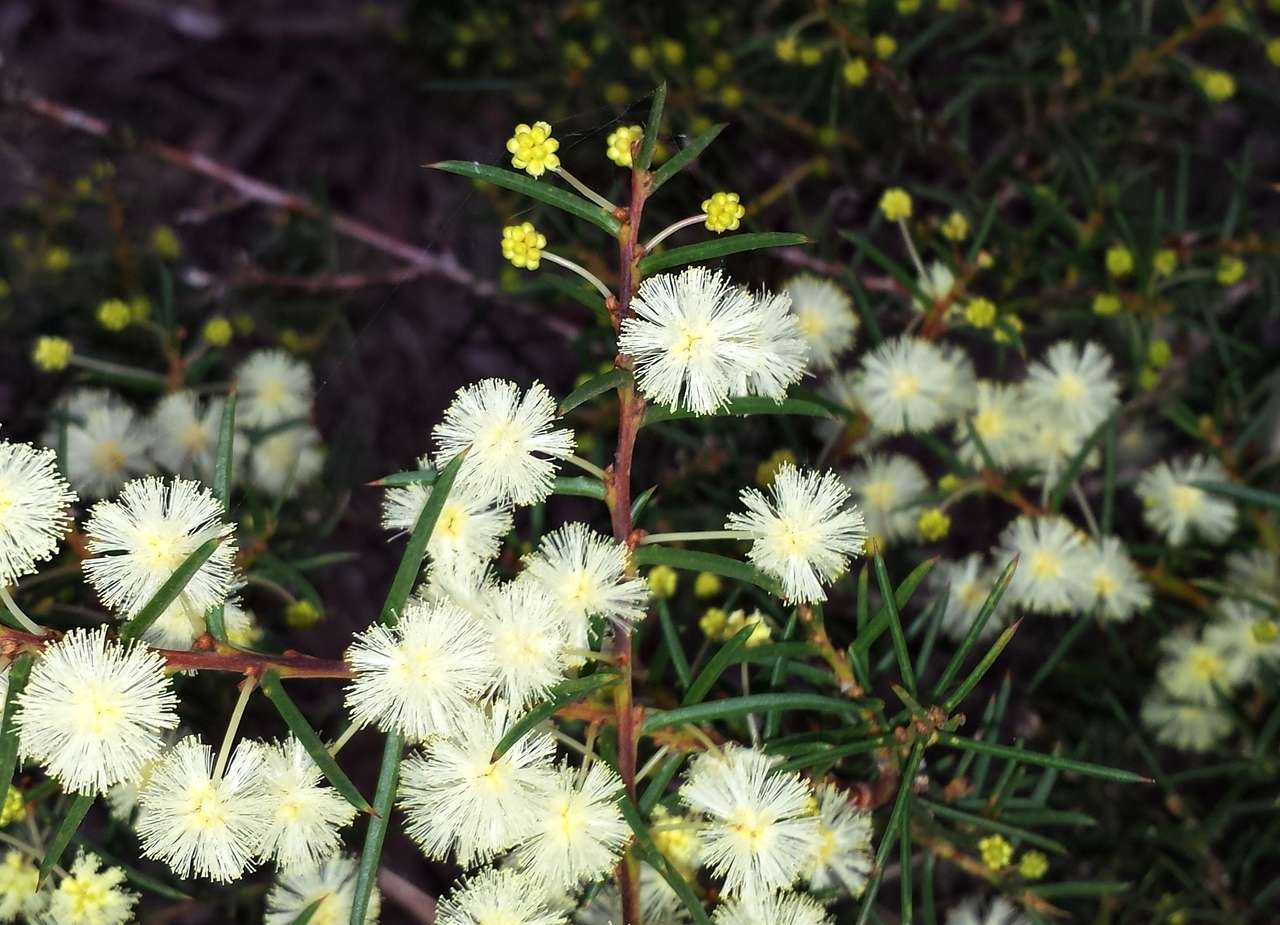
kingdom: Plantae
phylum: Tracheophyta
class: Magnoliopsida
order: Fabales
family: Fabaceae
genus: Acacia
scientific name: Acacia genistifolia
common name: Early wattle
